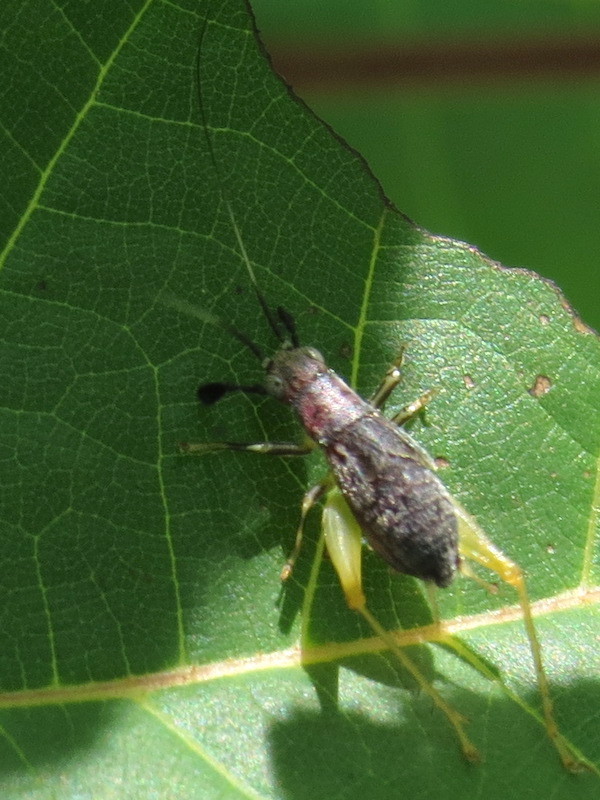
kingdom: Animalia
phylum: Arthropoda
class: Insecta
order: Orthoptera
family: Trigonidiidae
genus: Phyllopalpus
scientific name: Phyllopalpus pulchellus
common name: Handsome trig
